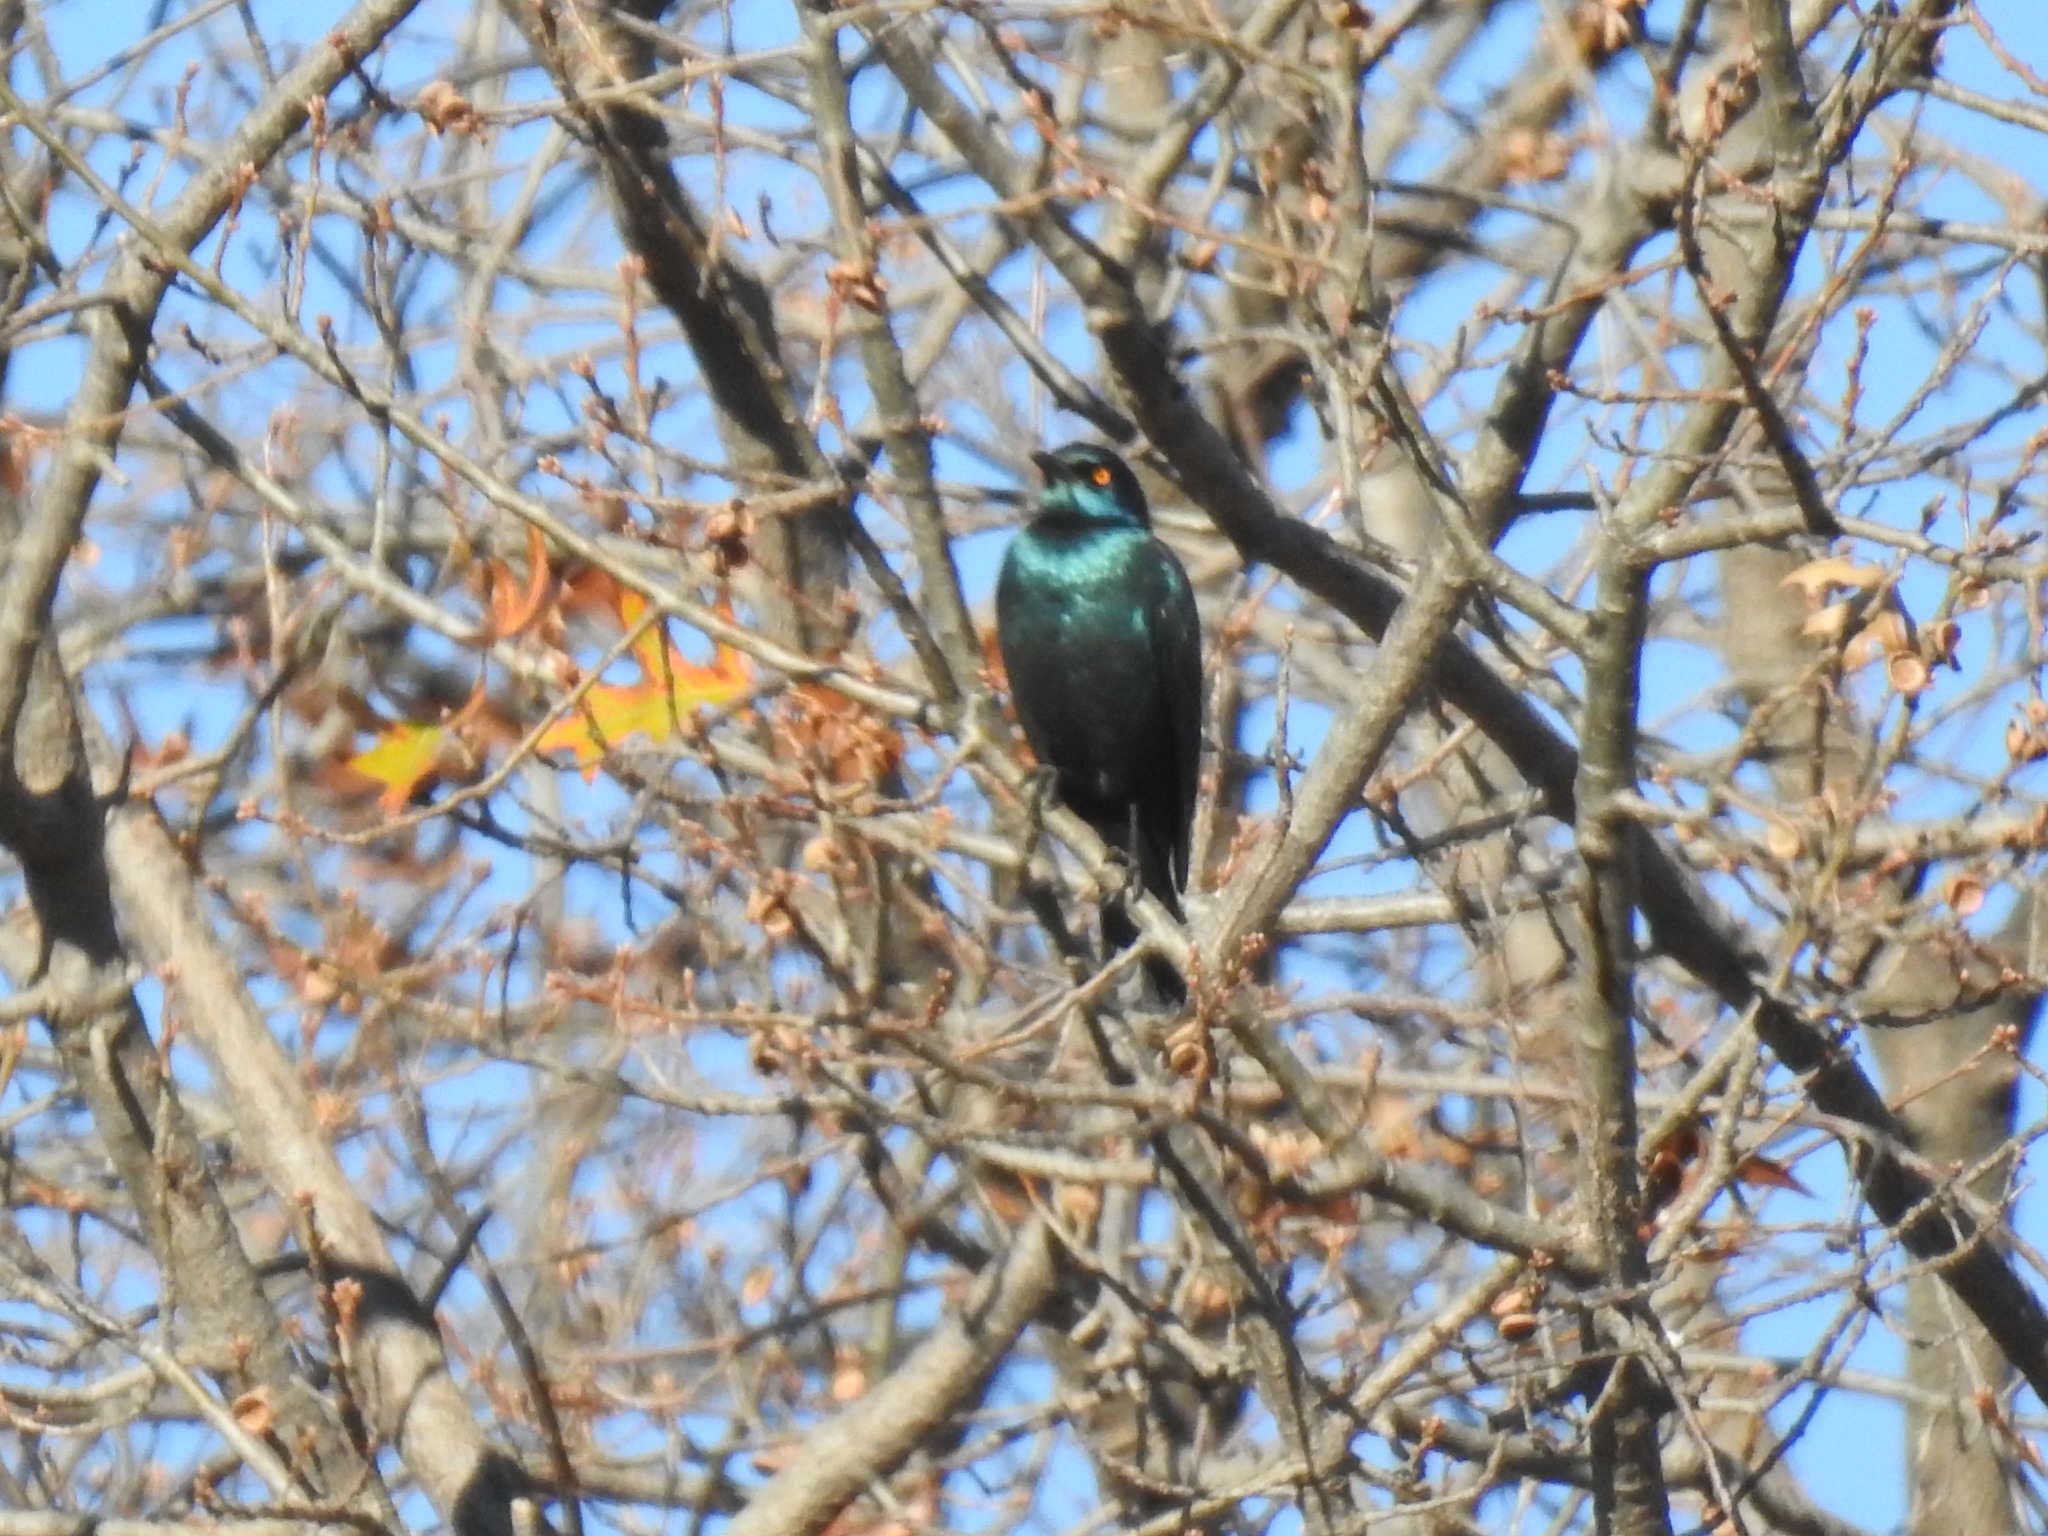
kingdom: Animalia
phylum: Chordata
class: Aves
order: Passeriformes
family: Sturnidae
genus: Lamprotornis
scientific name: Lamprotornis nitens
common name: Cape starling
